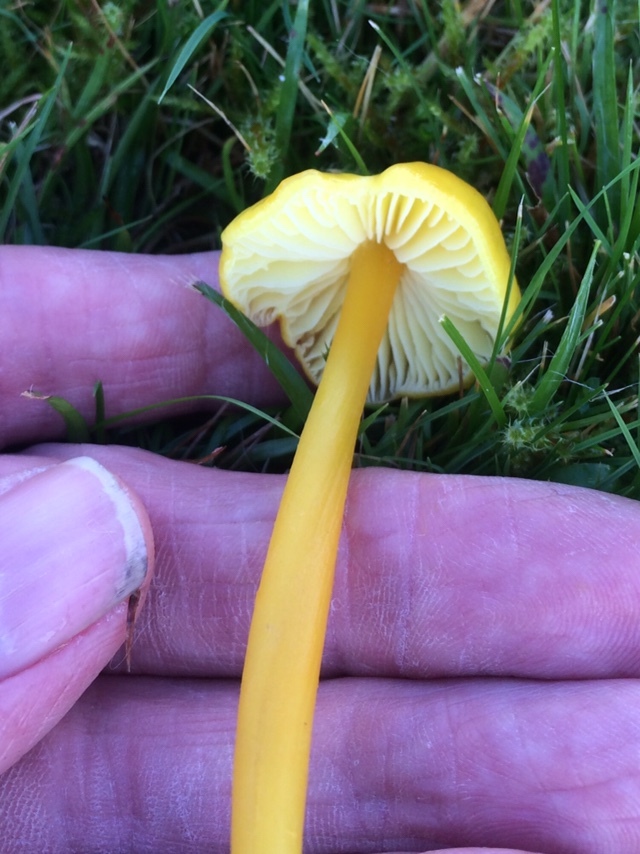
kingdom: Fungi
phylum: Basidiomycota
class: Agaricomycetes
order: Agaricales
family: Hygrophoraceae
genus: Hygrocybe
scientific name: Hygrocybe chlorophana
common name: Golden waxcap
